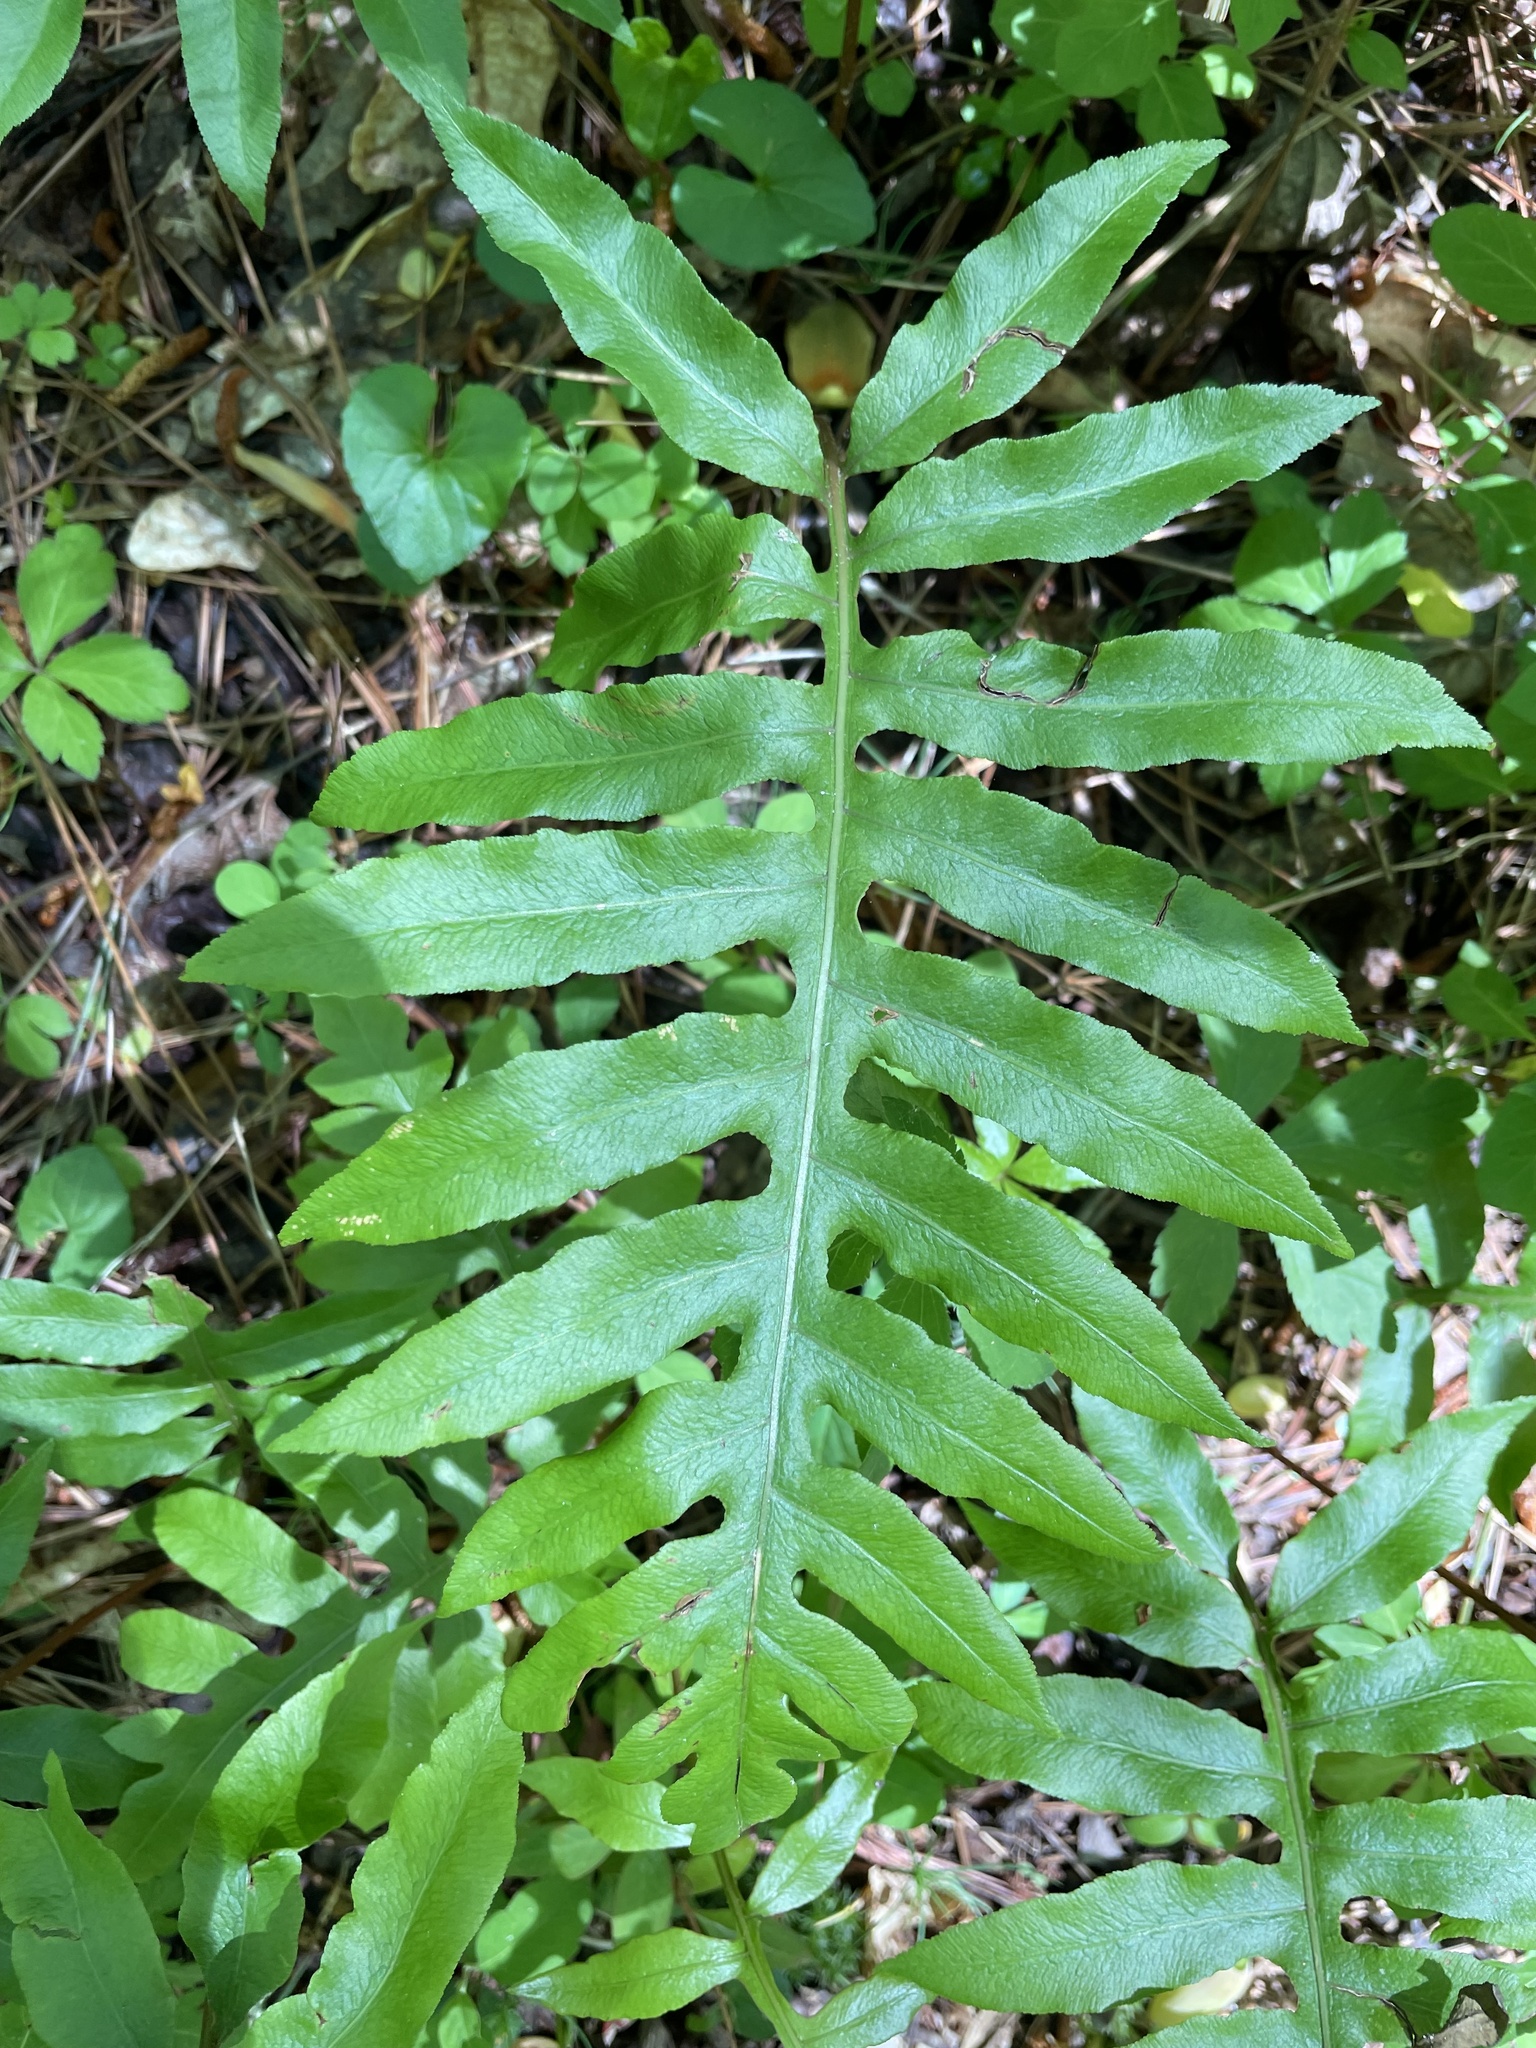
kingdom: Plantae
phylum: Tracheophyta
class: Polypodiopsida
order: Polypodiales
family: Blechnaceae
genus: Lorinseria
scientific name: Lorinseria areolata
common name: Dwarf chain fern
